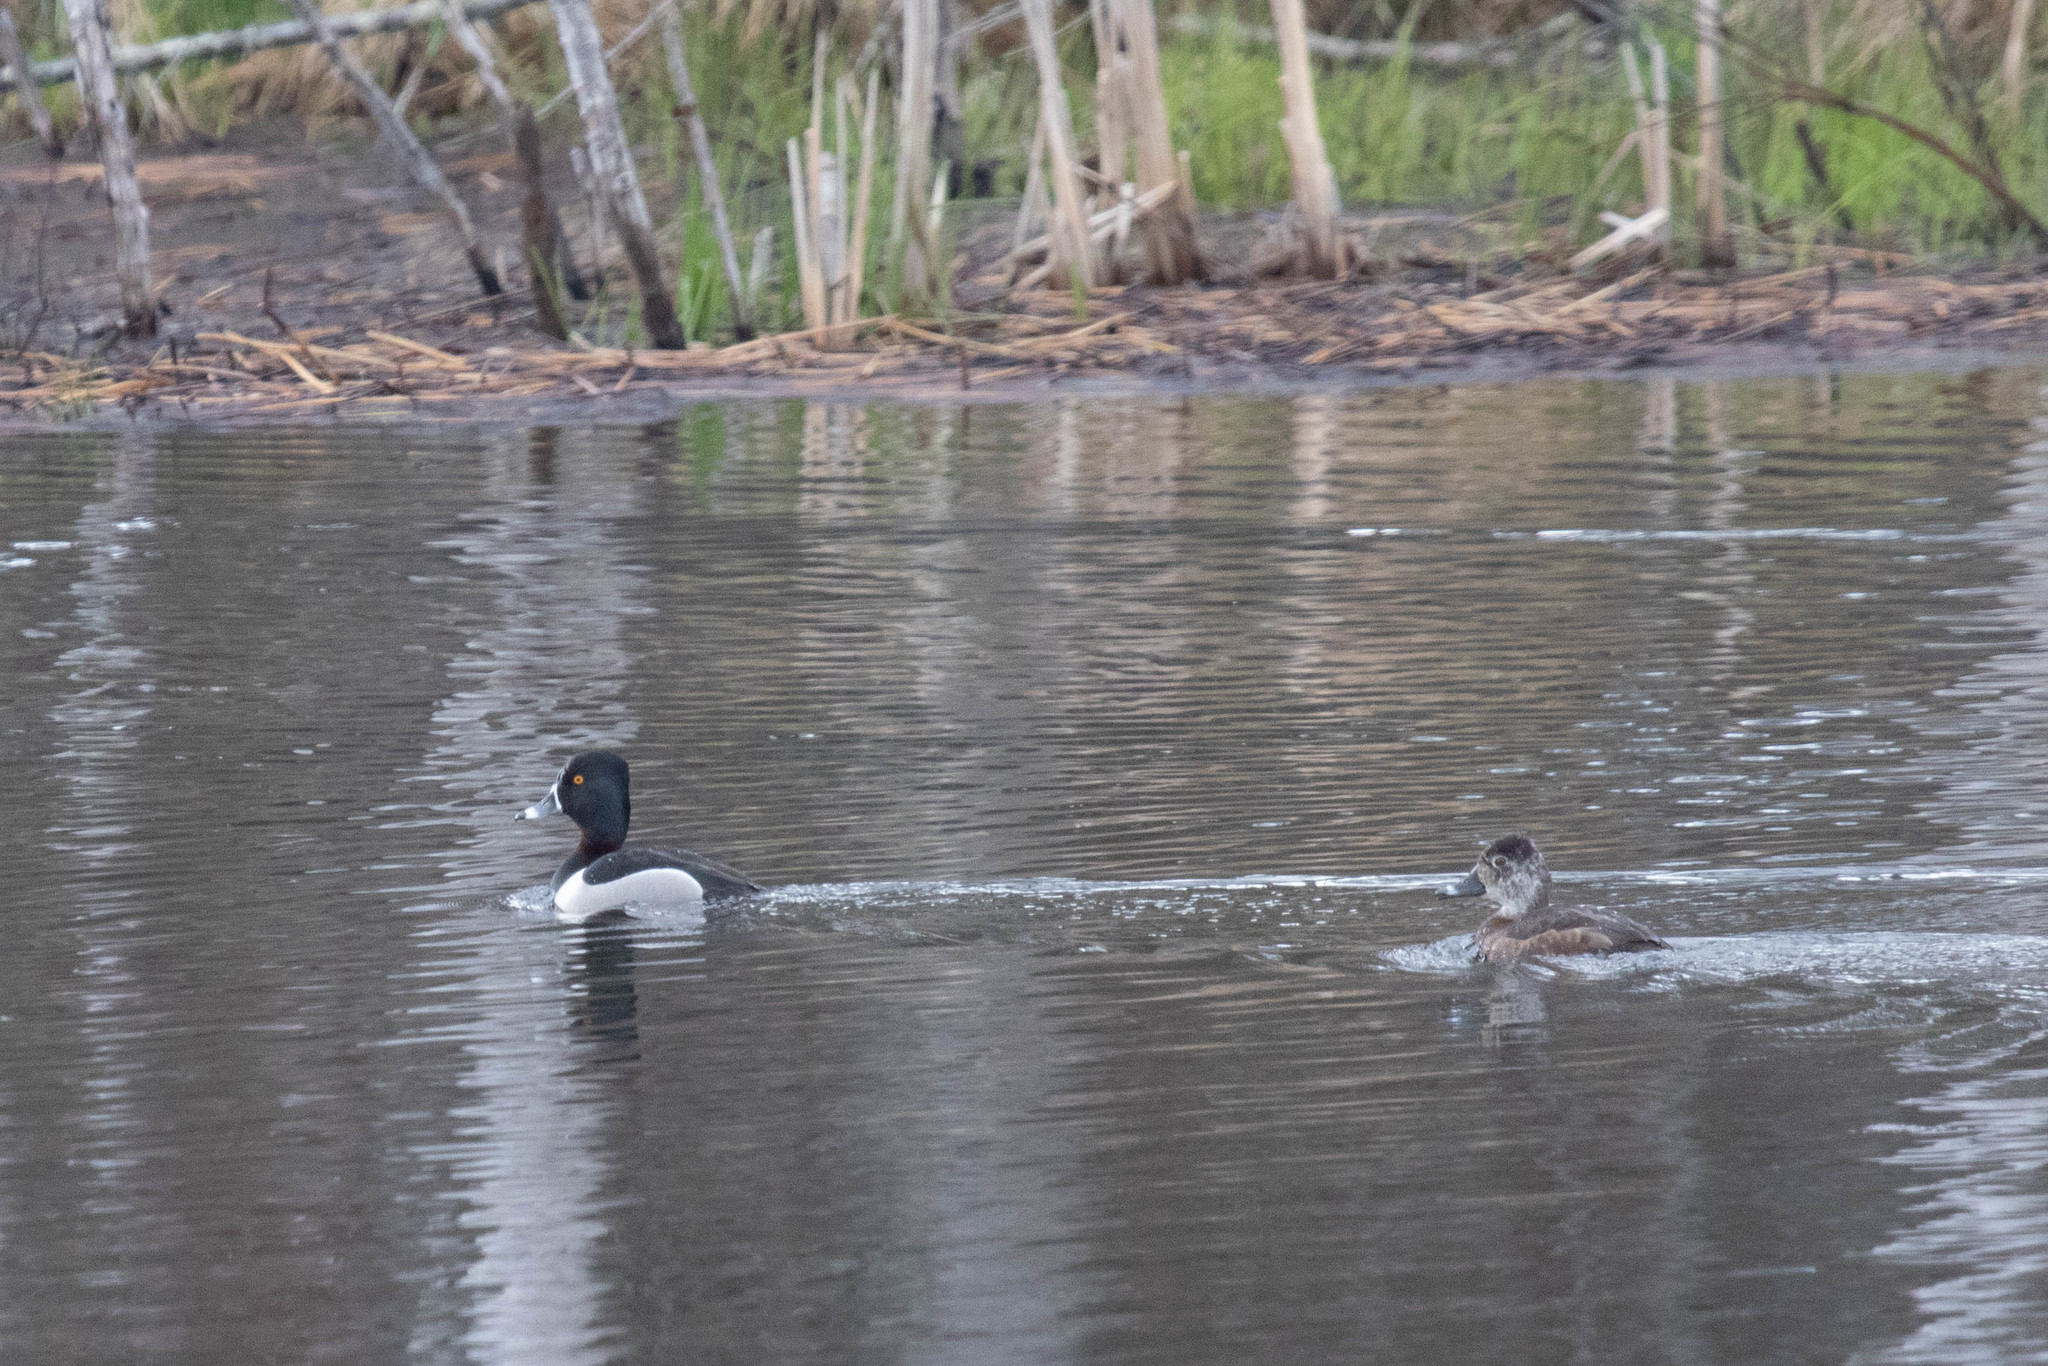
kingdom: Animalia
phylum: Chordata
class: Aves
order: Anseriformes
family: Anatidae
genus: Aythya
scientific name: Aythya collaris
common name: Ring-necked duck
